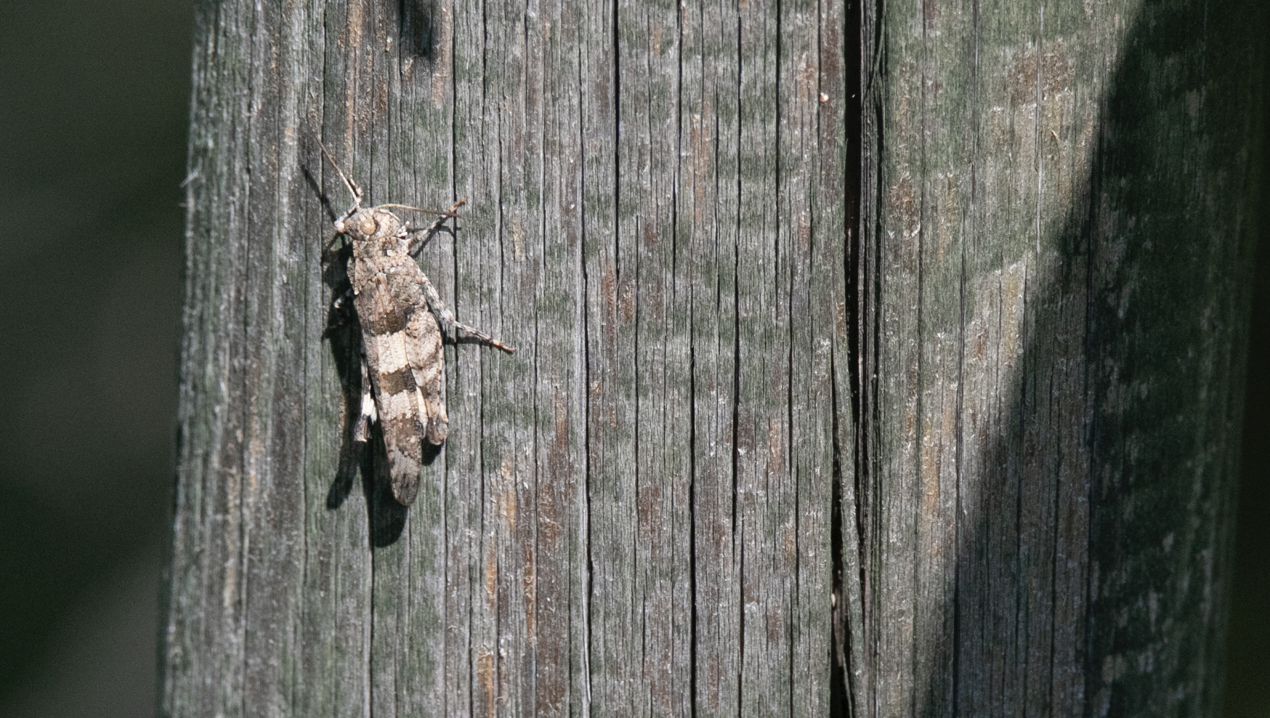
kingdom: Animalia
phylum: Arthropoda
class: Insecta
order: Orthoptera
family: Acrididae
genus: Oedipoda
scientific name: Oedipoda caerulescens
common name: Blue-winged grasshopper
